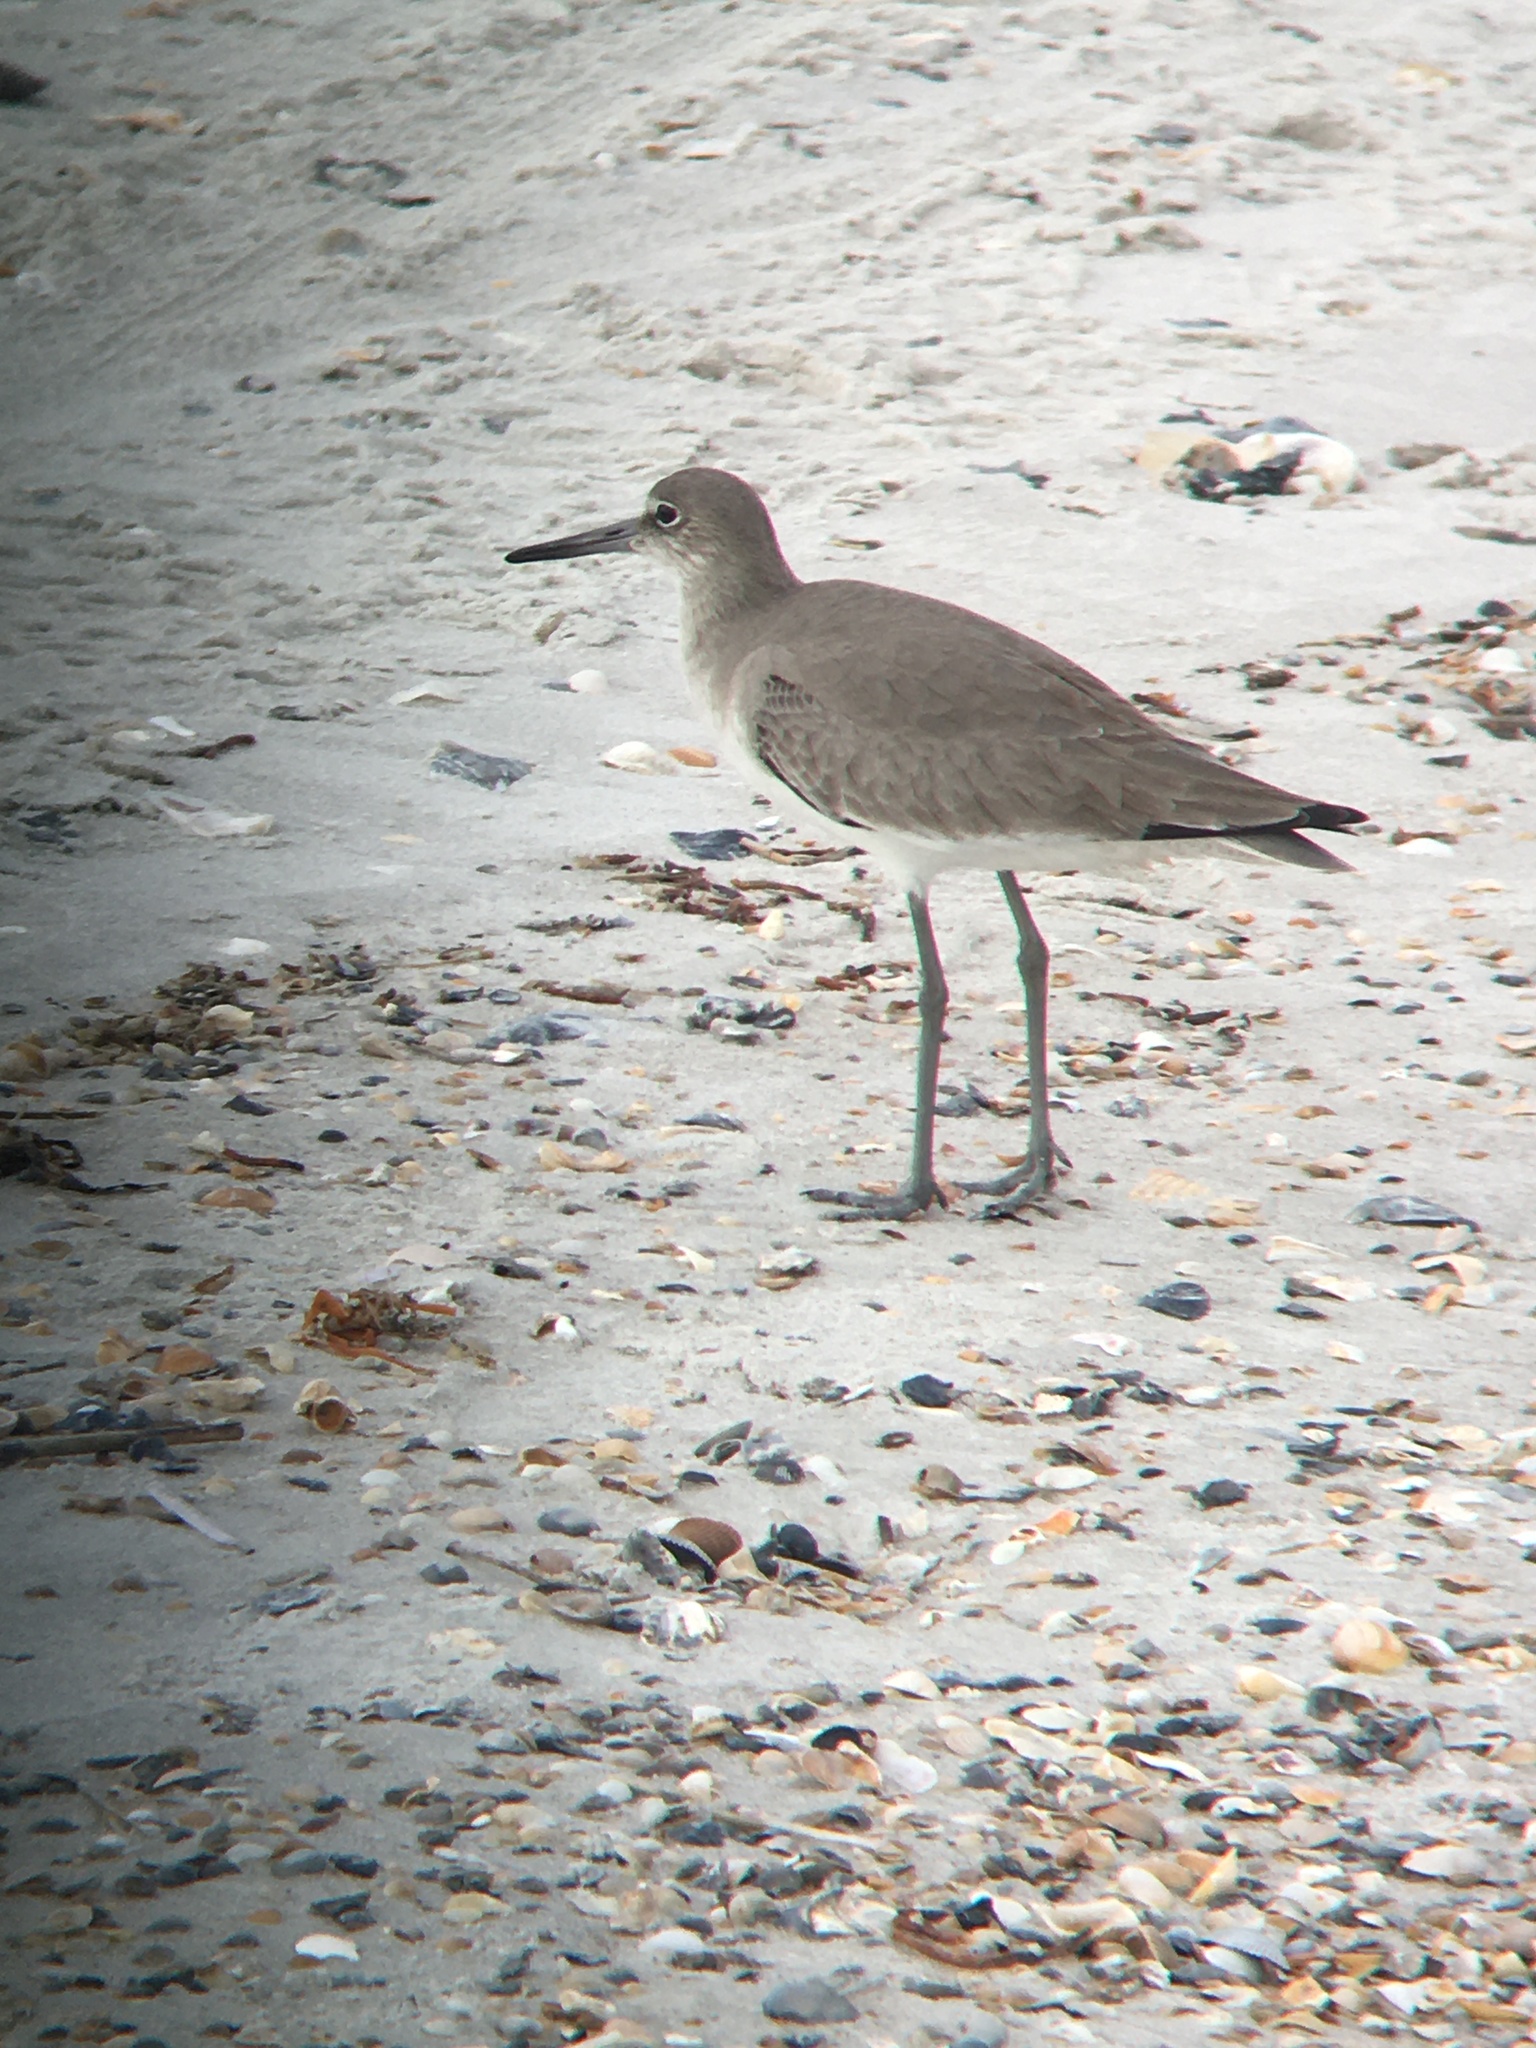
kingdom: Animalia
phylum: Chordata
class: Aves
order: Charadriiformes
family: Scolopacidae
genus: Tringa
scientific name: Tringa semipalmata
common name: Willet
